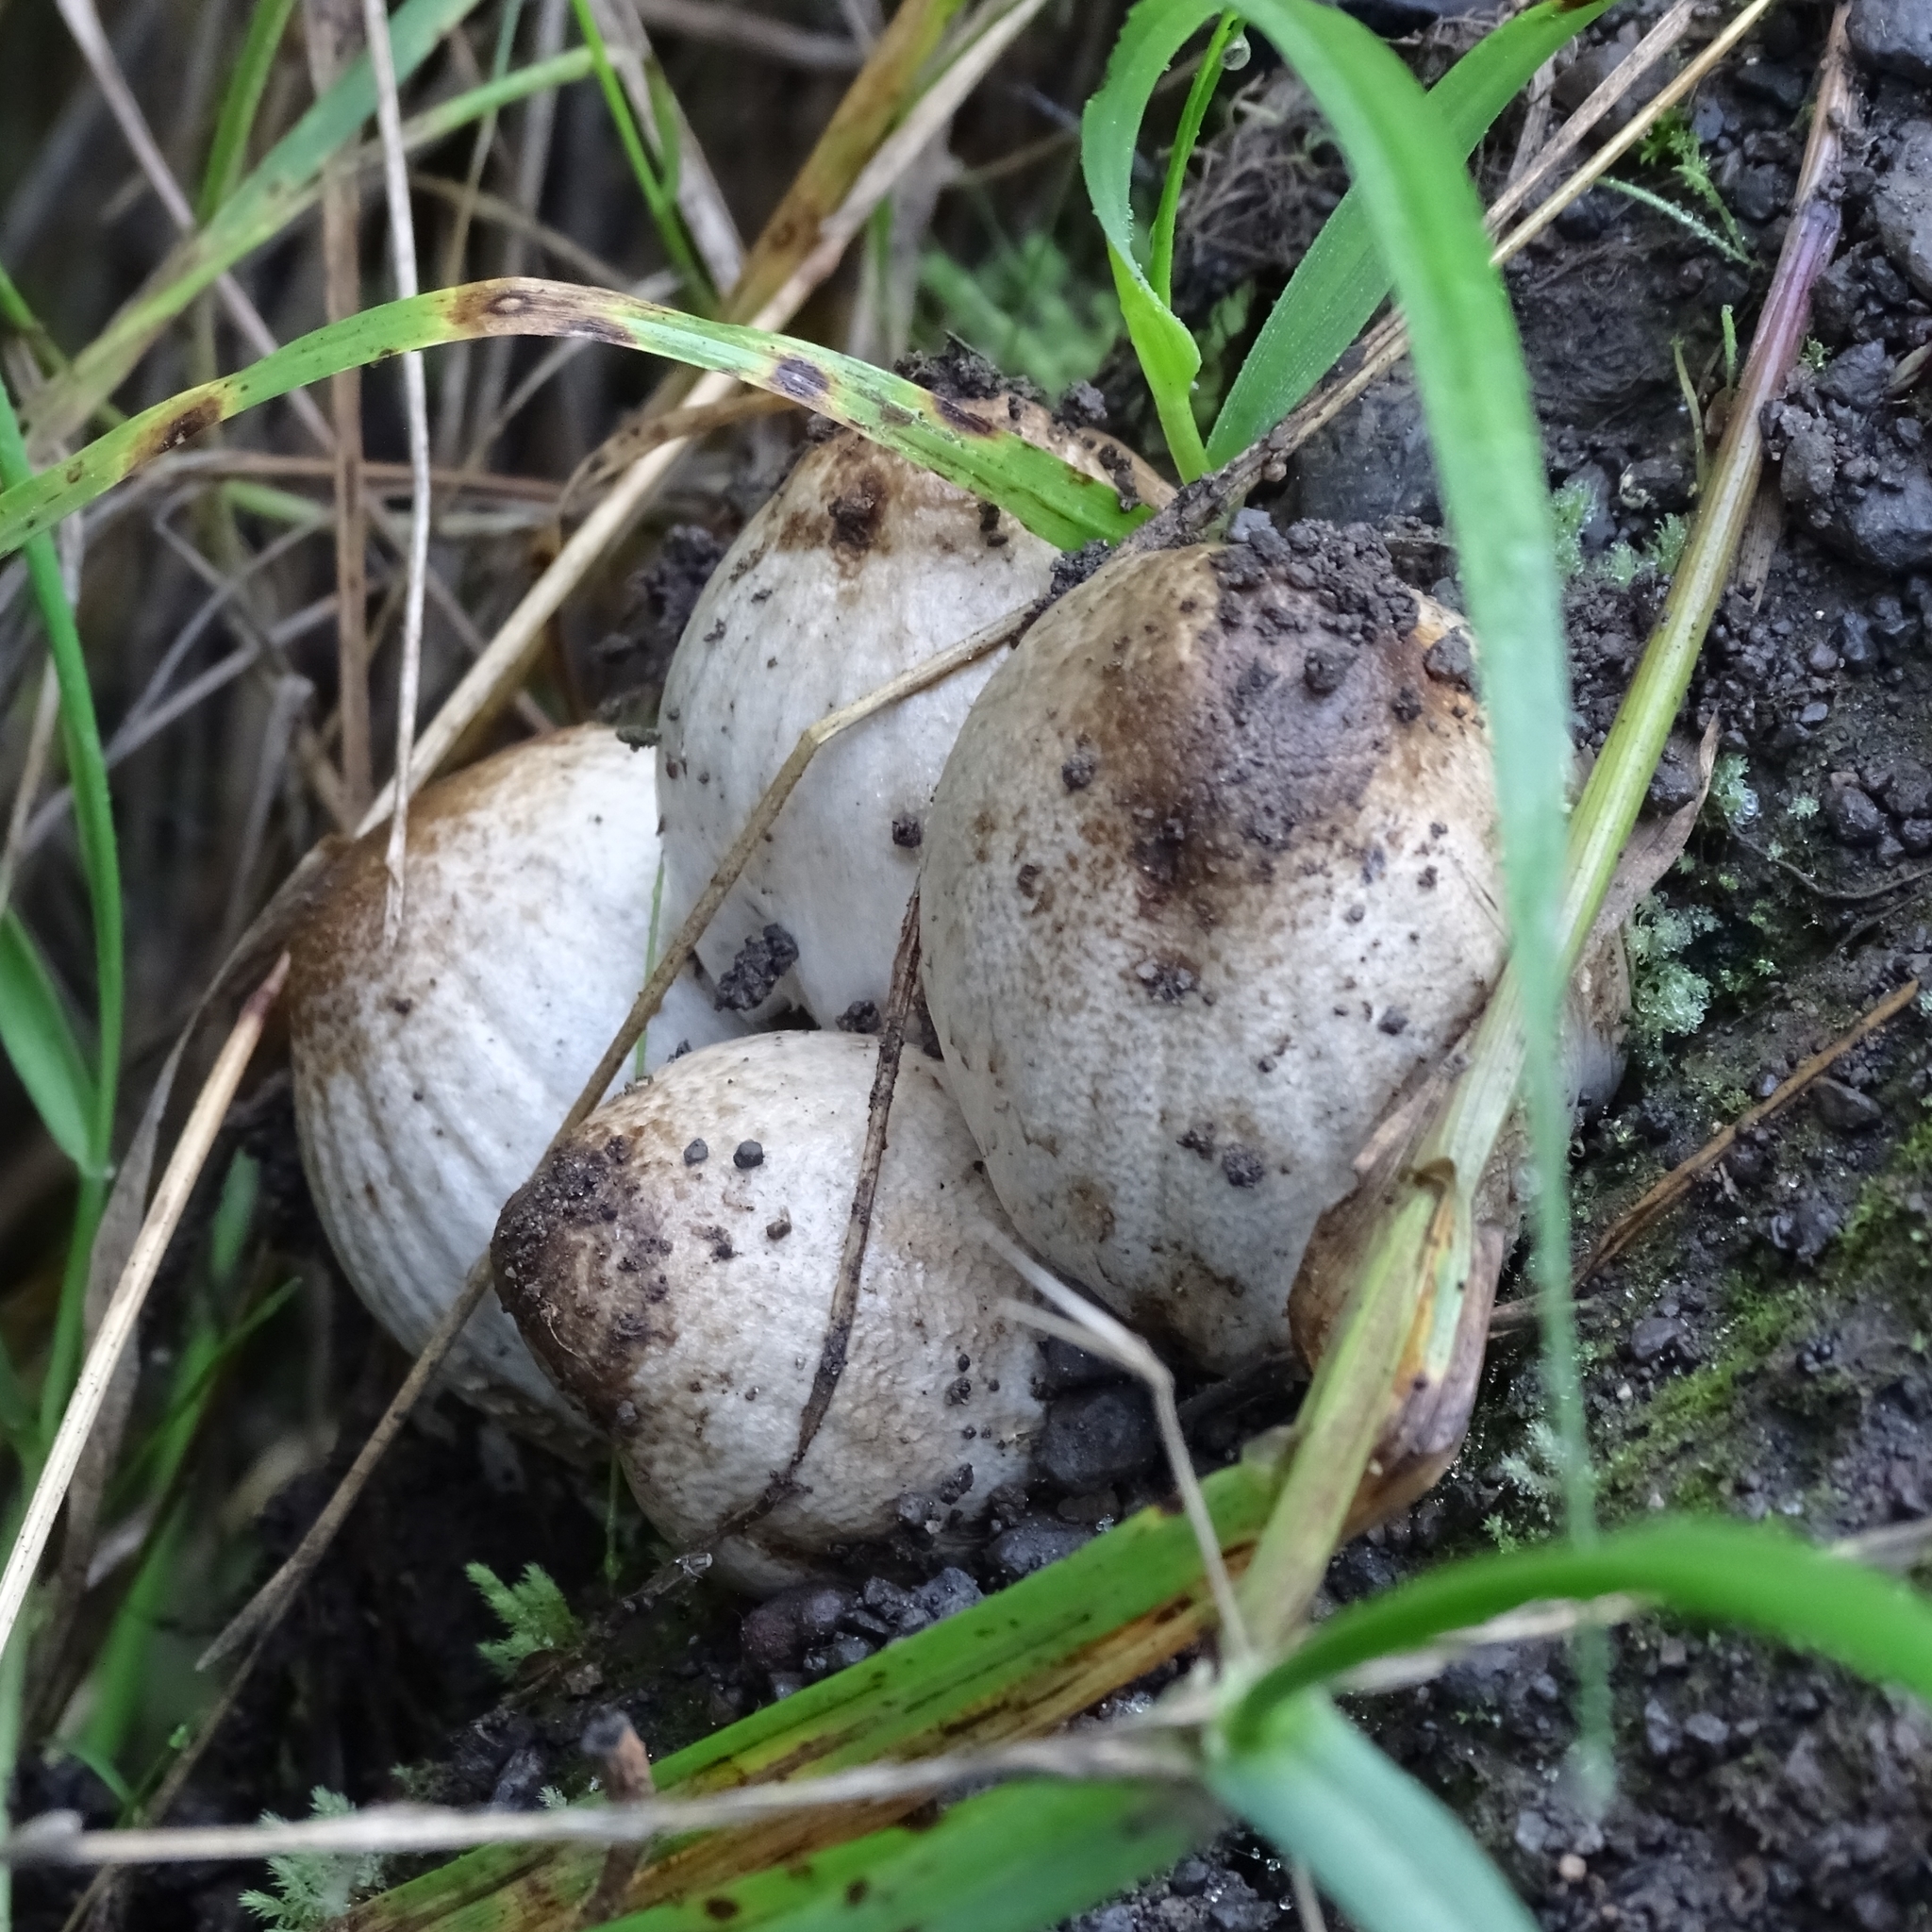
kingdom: Fungi
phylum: Basidiomycota
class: Agaricomycetes
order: Agaricales
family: Psathyrellaceae
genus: Coprinopsis
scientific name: Coprinopsis atramentaria
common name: Common ink-cap
